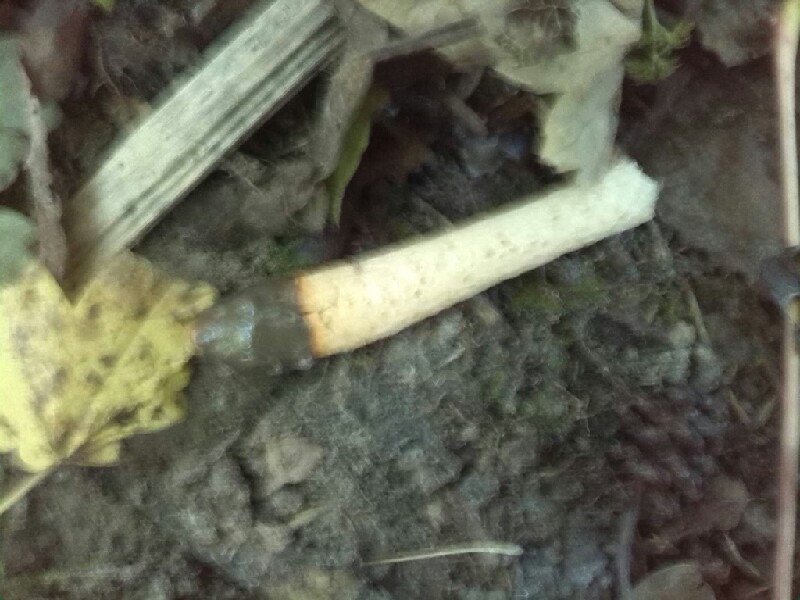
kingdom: Fungi
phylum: Basidiomycota
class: Agaricomycetes
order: Phallales
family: Phallaceae
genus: Mutinus
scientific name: Mutinus caninus
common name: Dog stinkhorn
